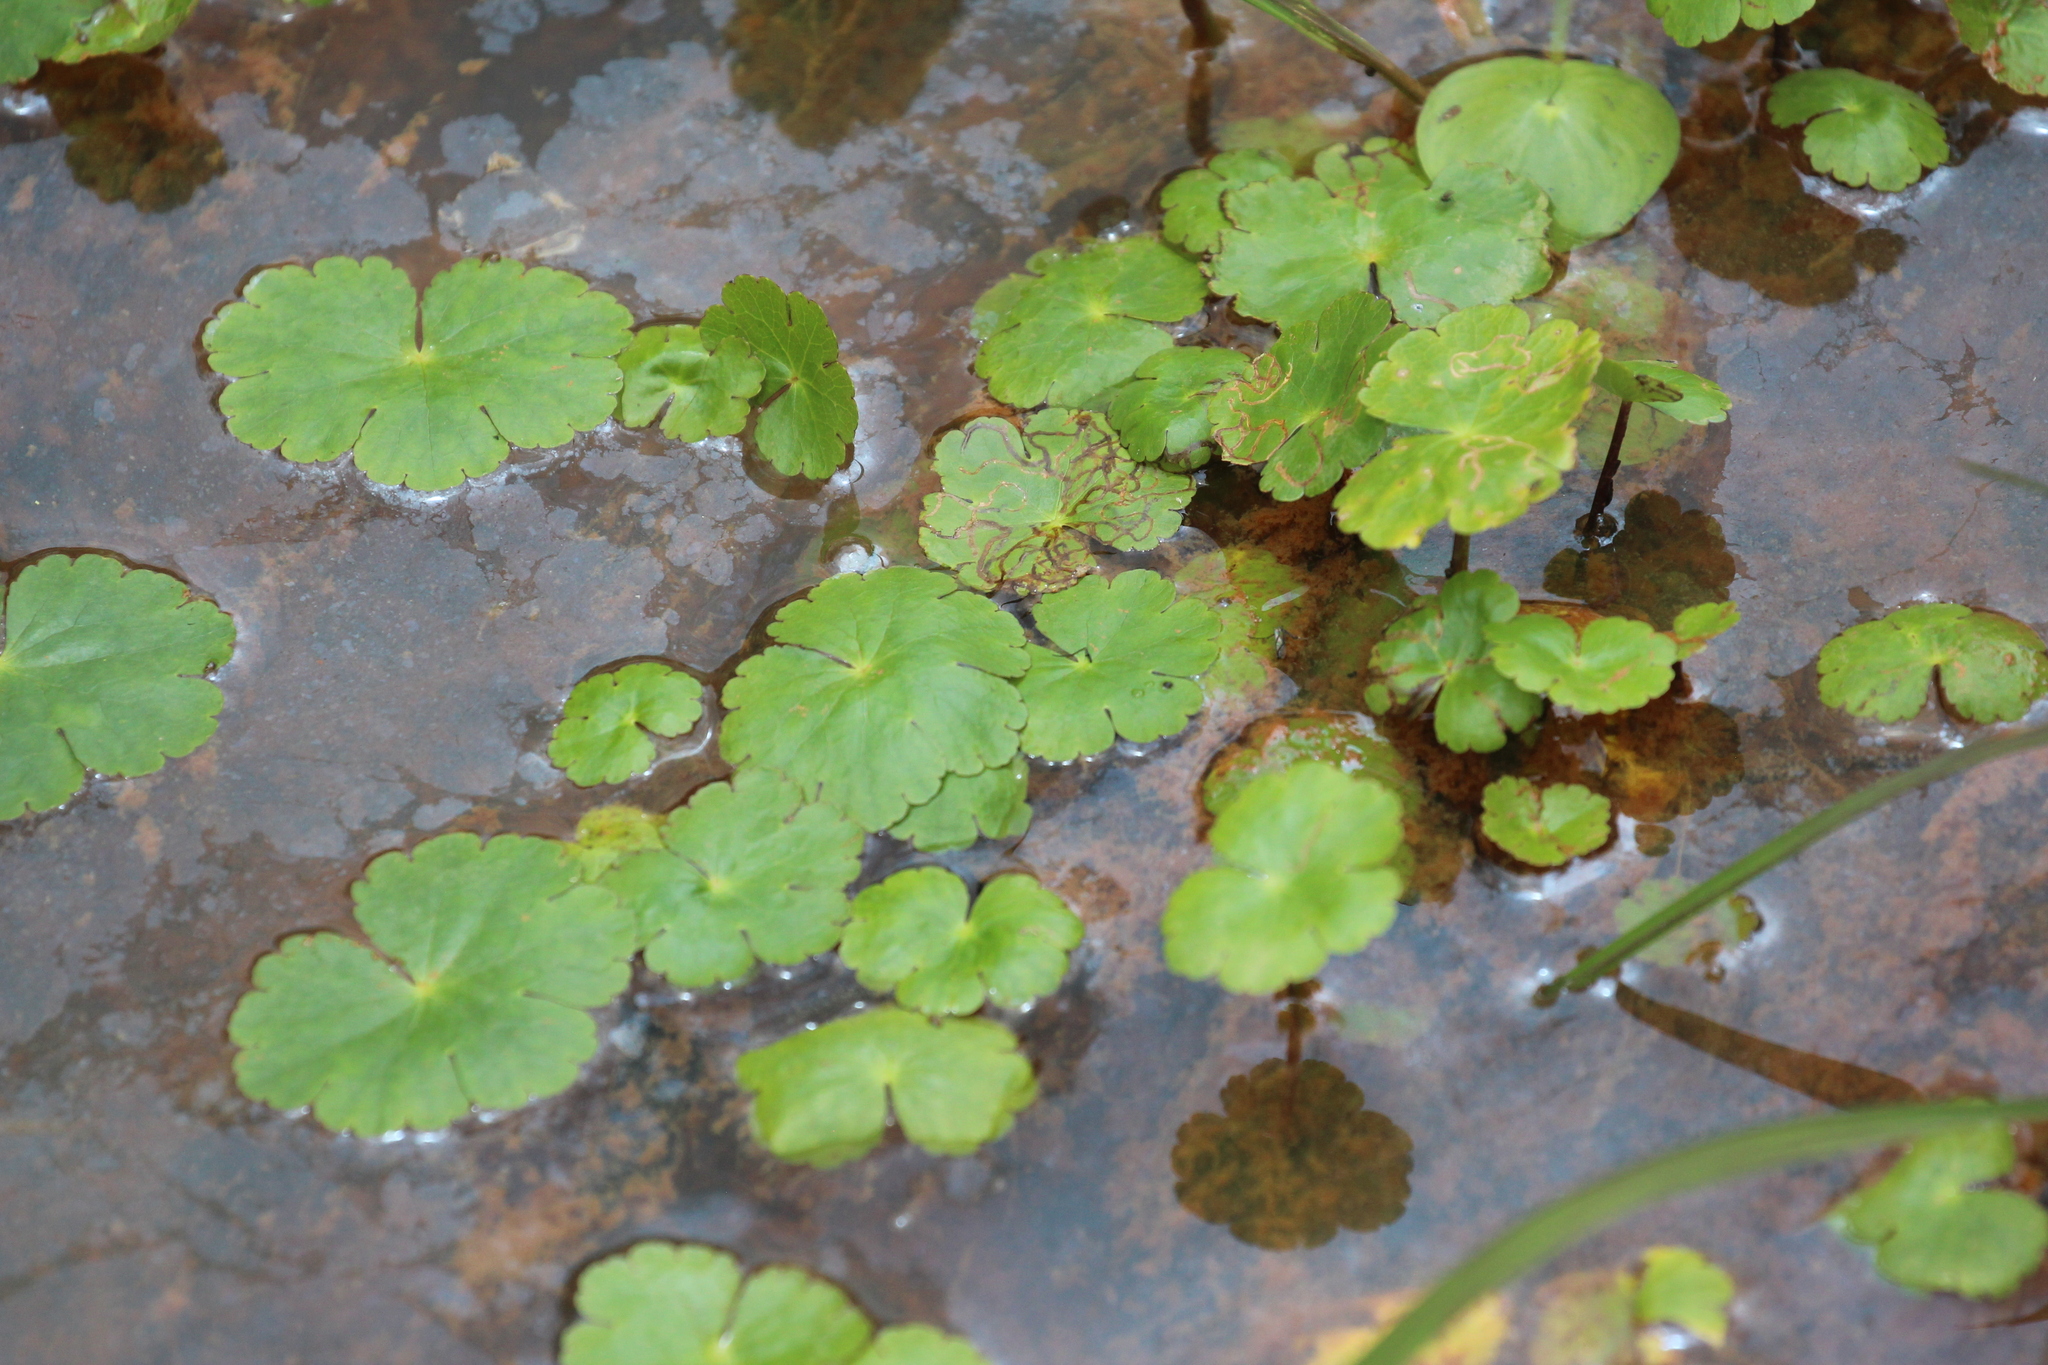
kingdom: Plantae
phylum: Tracheophyta
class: Magnoliopsida
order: Apiales
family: Araliaceae
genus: Hydrocotyle
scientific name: Hydrocotyle ranunculoides
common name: Floating pennywort
